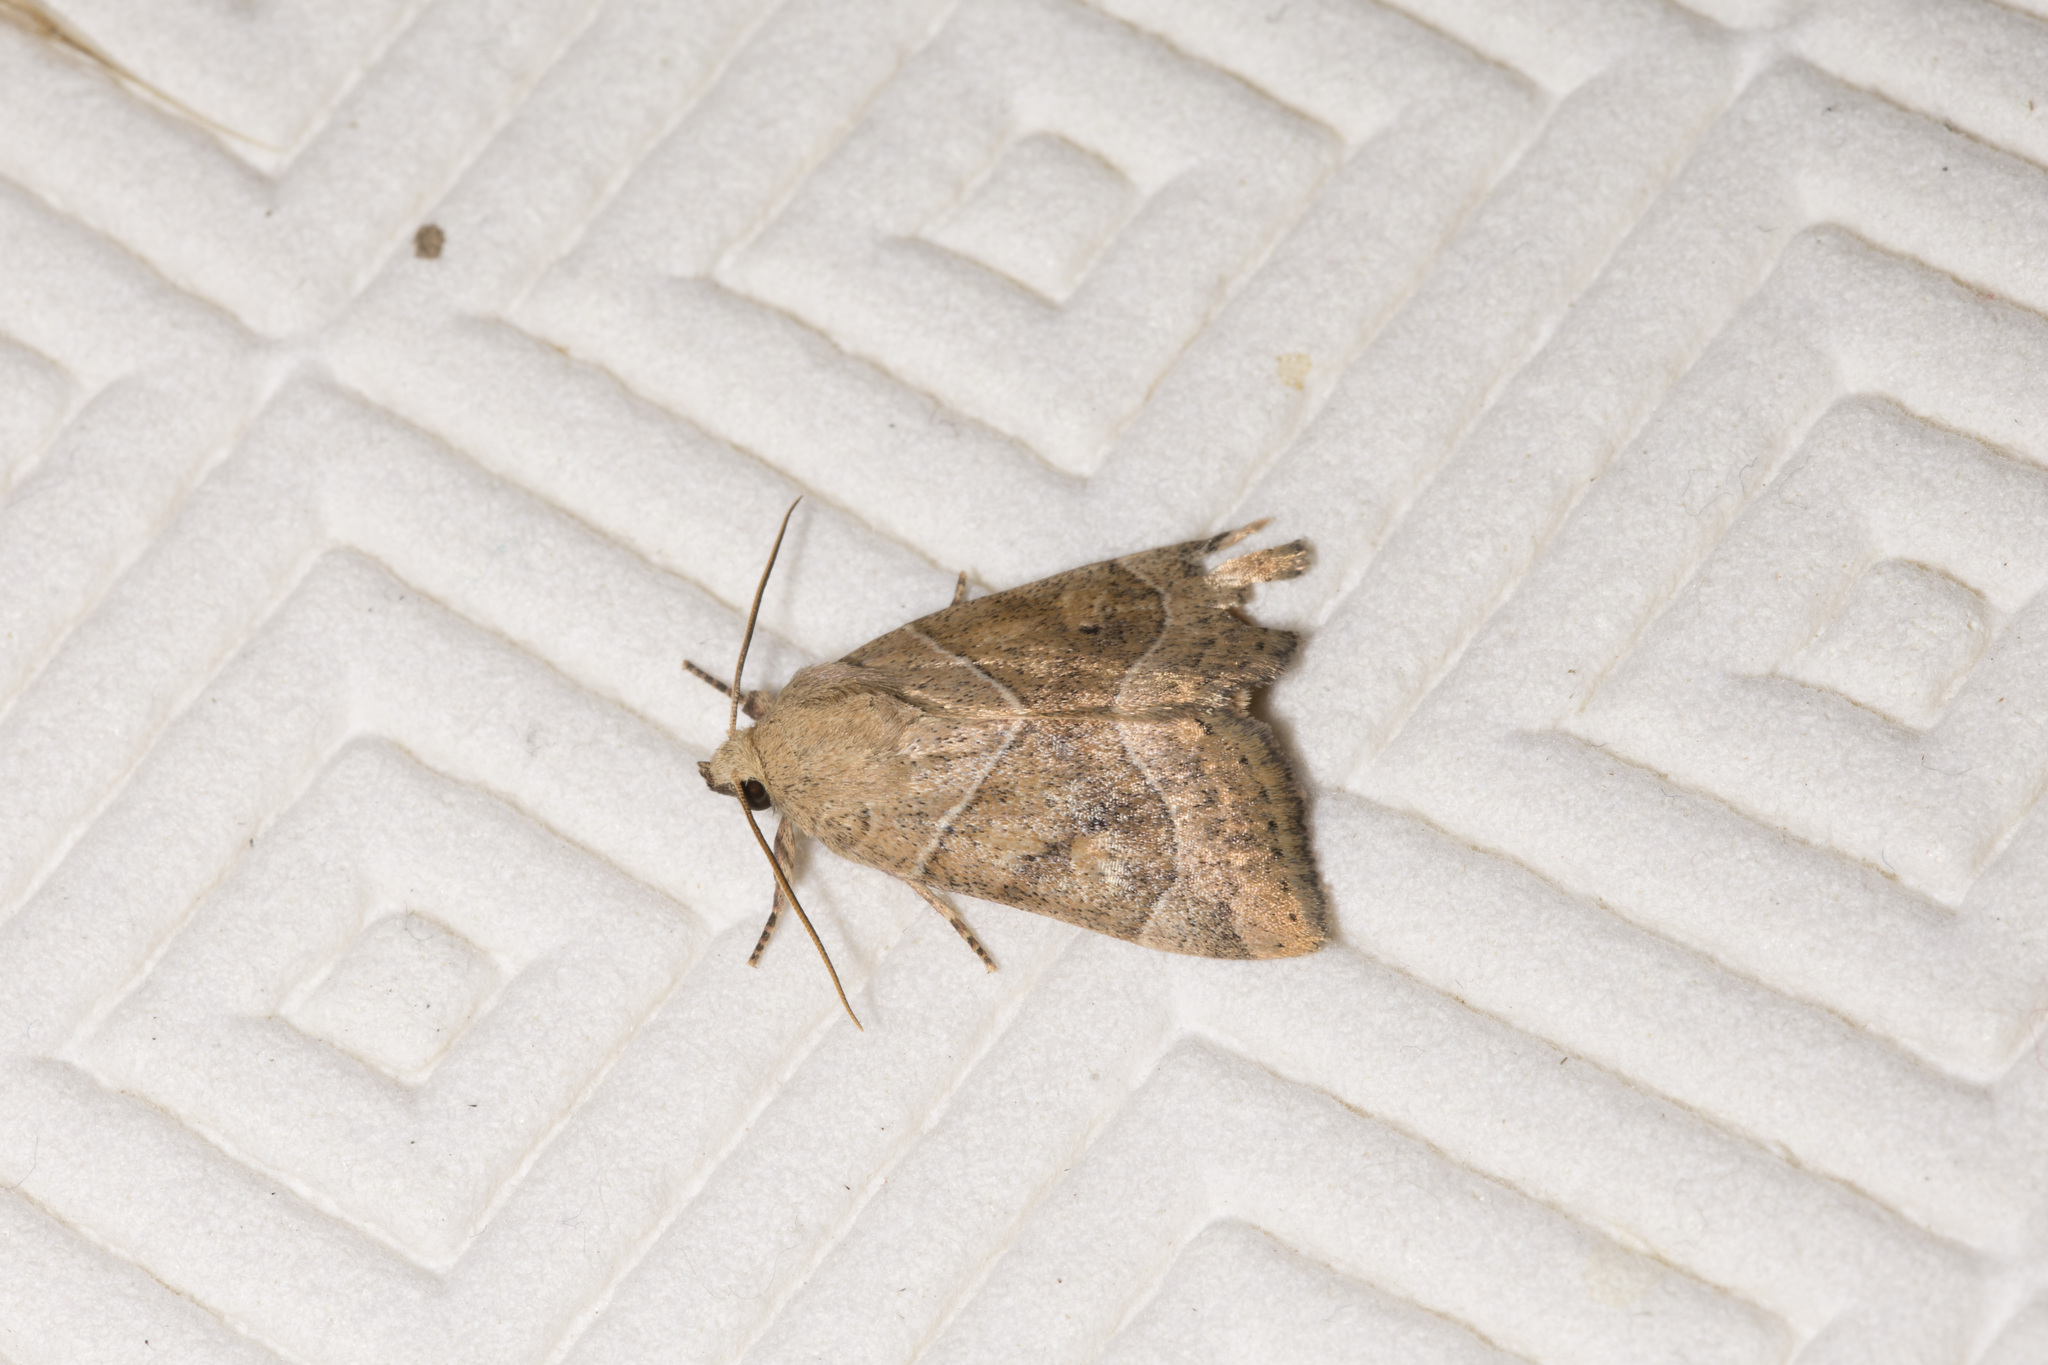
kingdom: Animalia
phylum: Arthropoda
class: Insecta
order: Lepidoptera
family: Noctuidae
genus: Cosmia
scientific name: Cosmia trapezina
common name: Dun-bar
